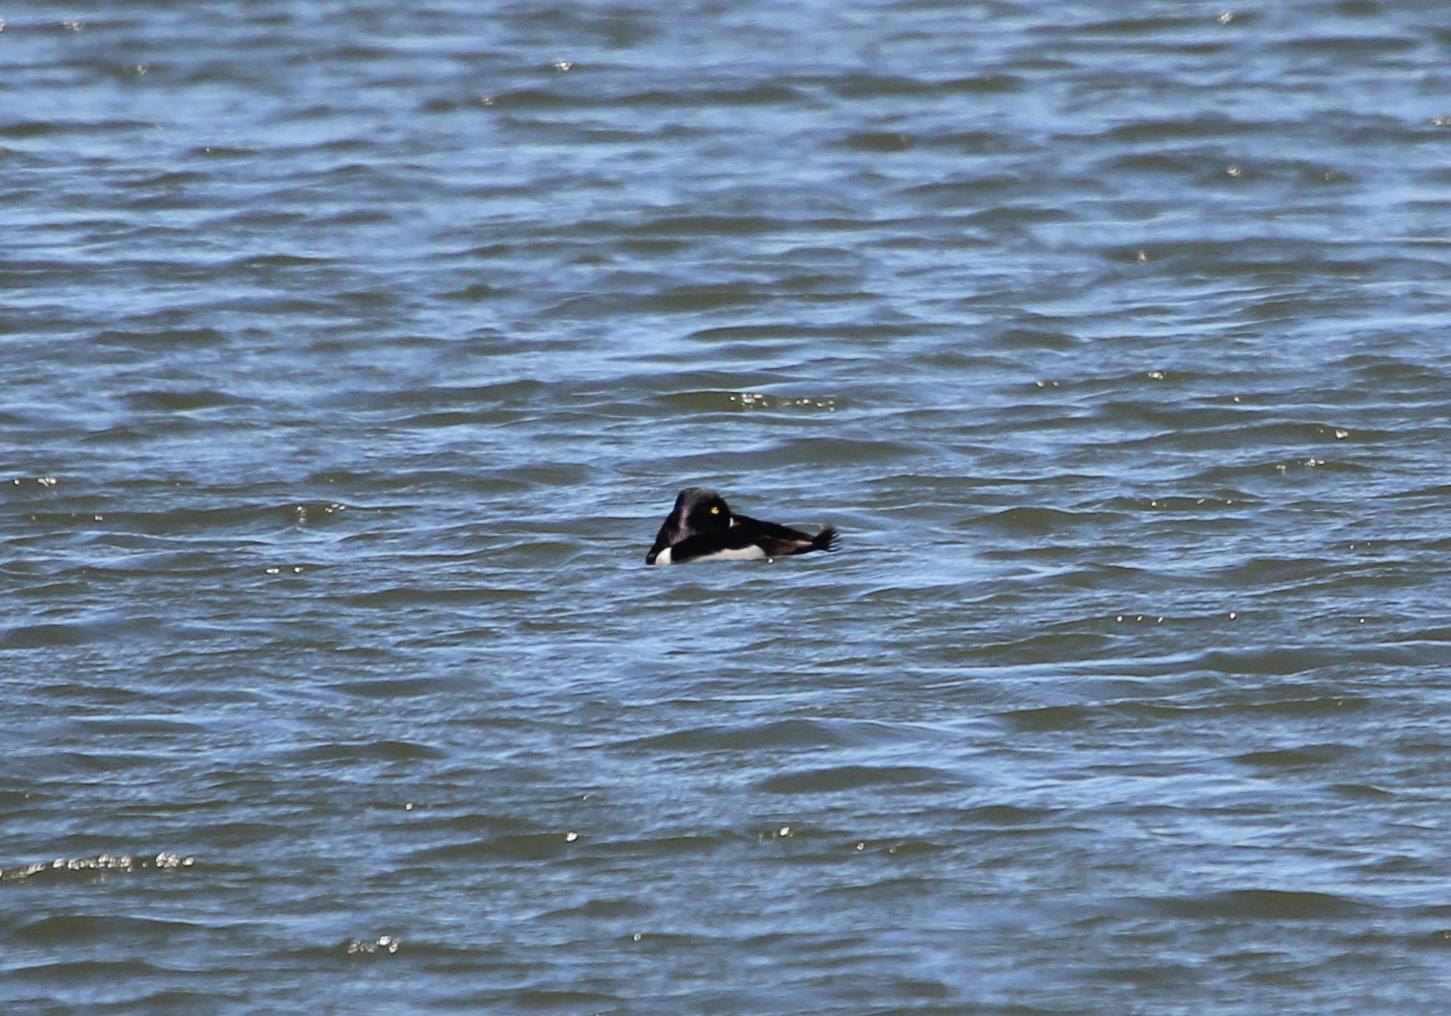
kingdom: Animalia
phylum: Chordata
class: Aves
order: Anseriformes
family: Anatidae
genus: Aythya
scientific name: Aythya collaris
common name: Ring-necked duck
